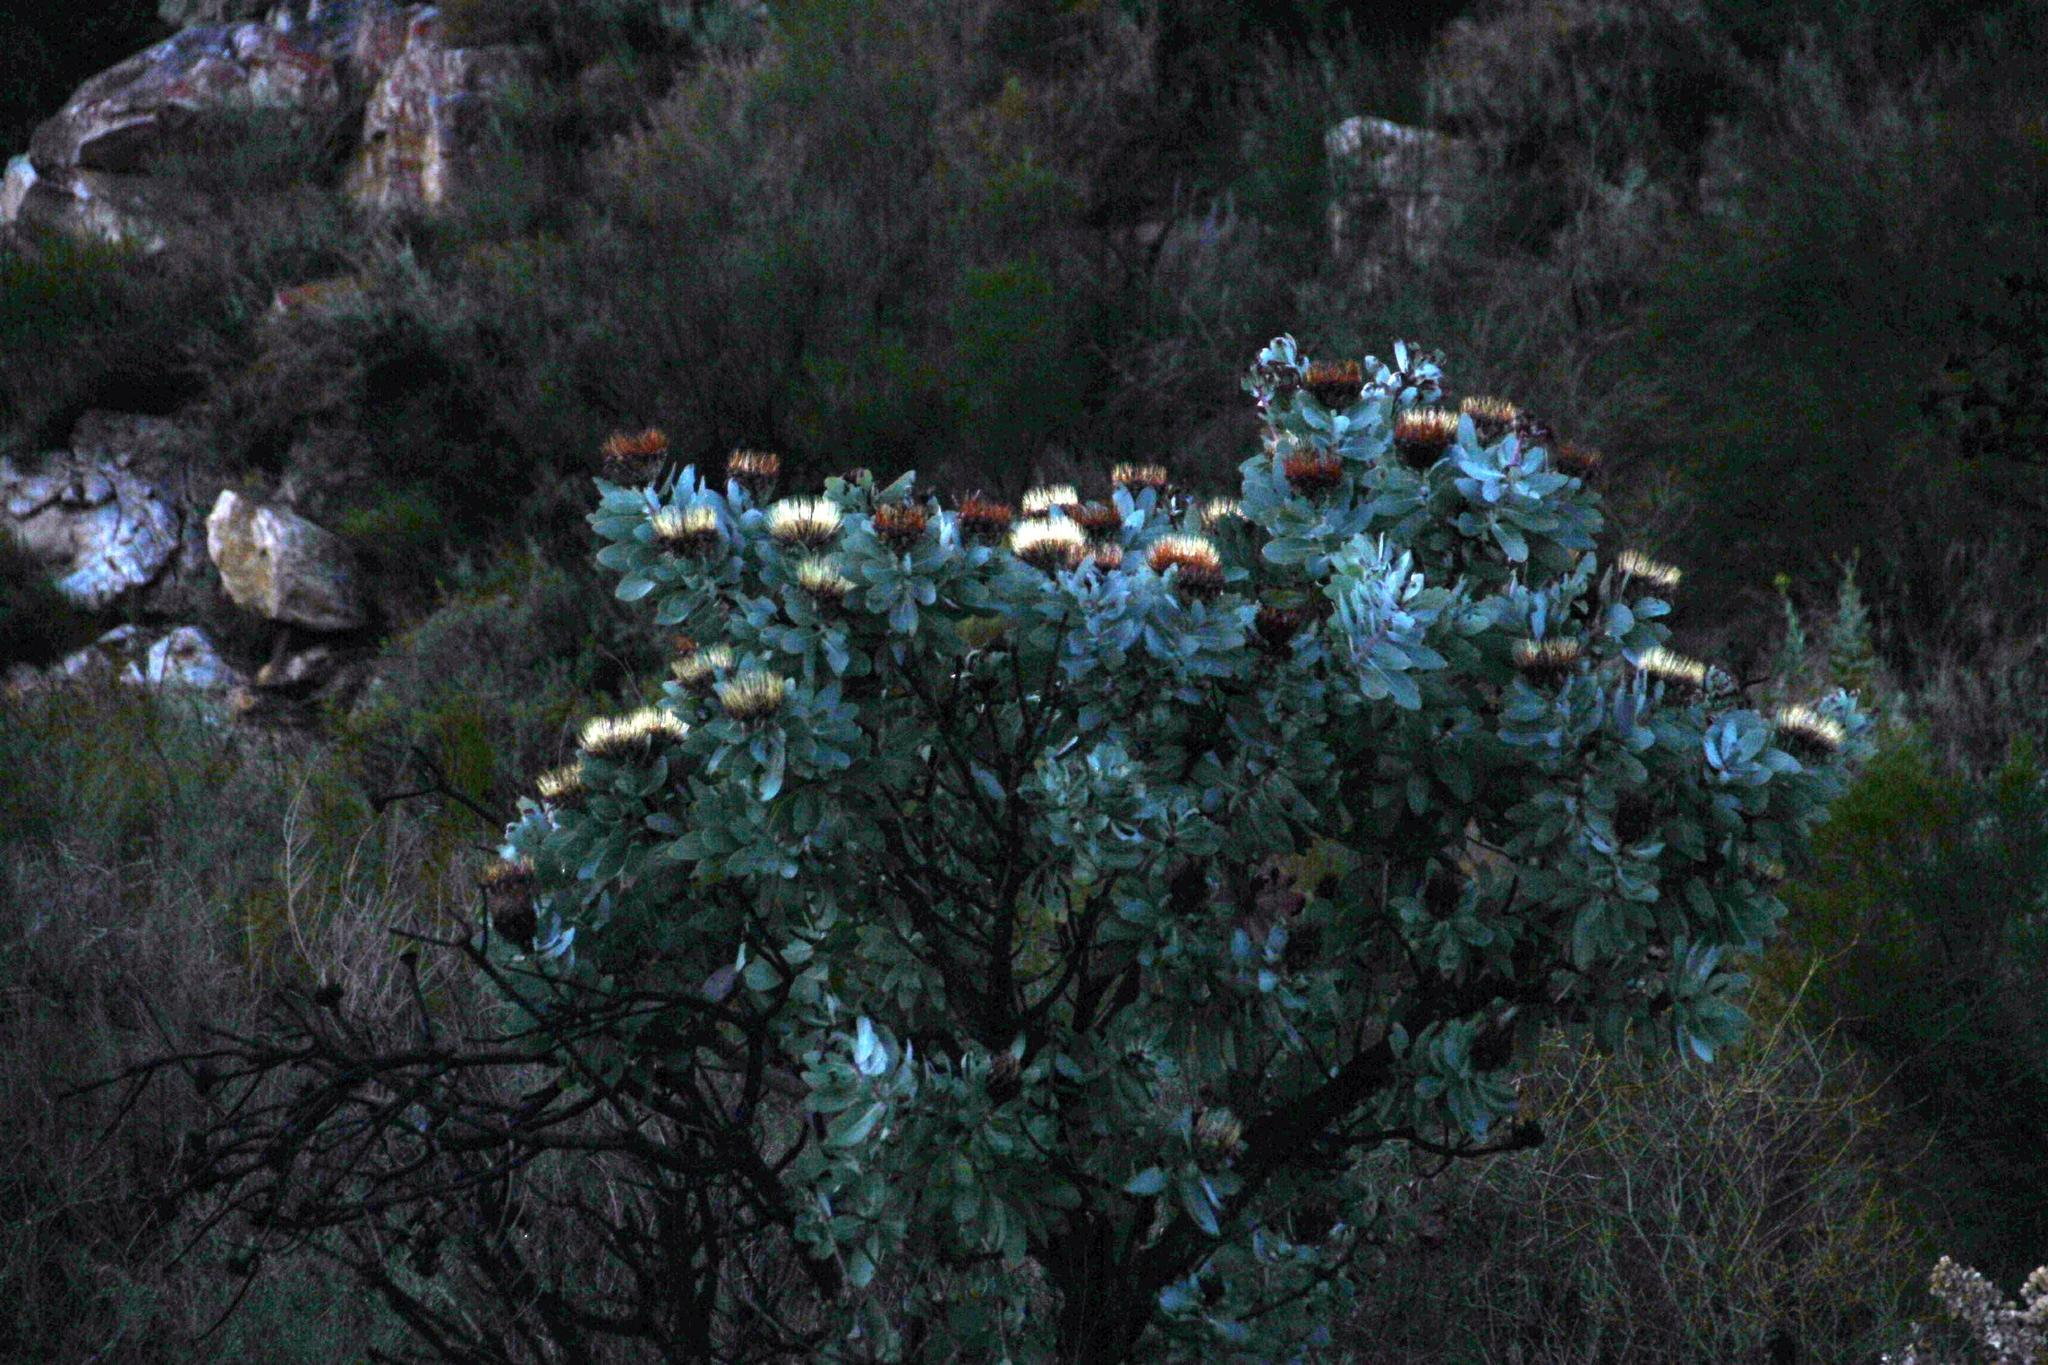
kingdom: Plantae
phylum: Tracheophyta
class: Magnoliopsida
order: Proteales
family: Proteaceae
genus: Protea
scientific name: Protea nitida
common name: Tree protea
